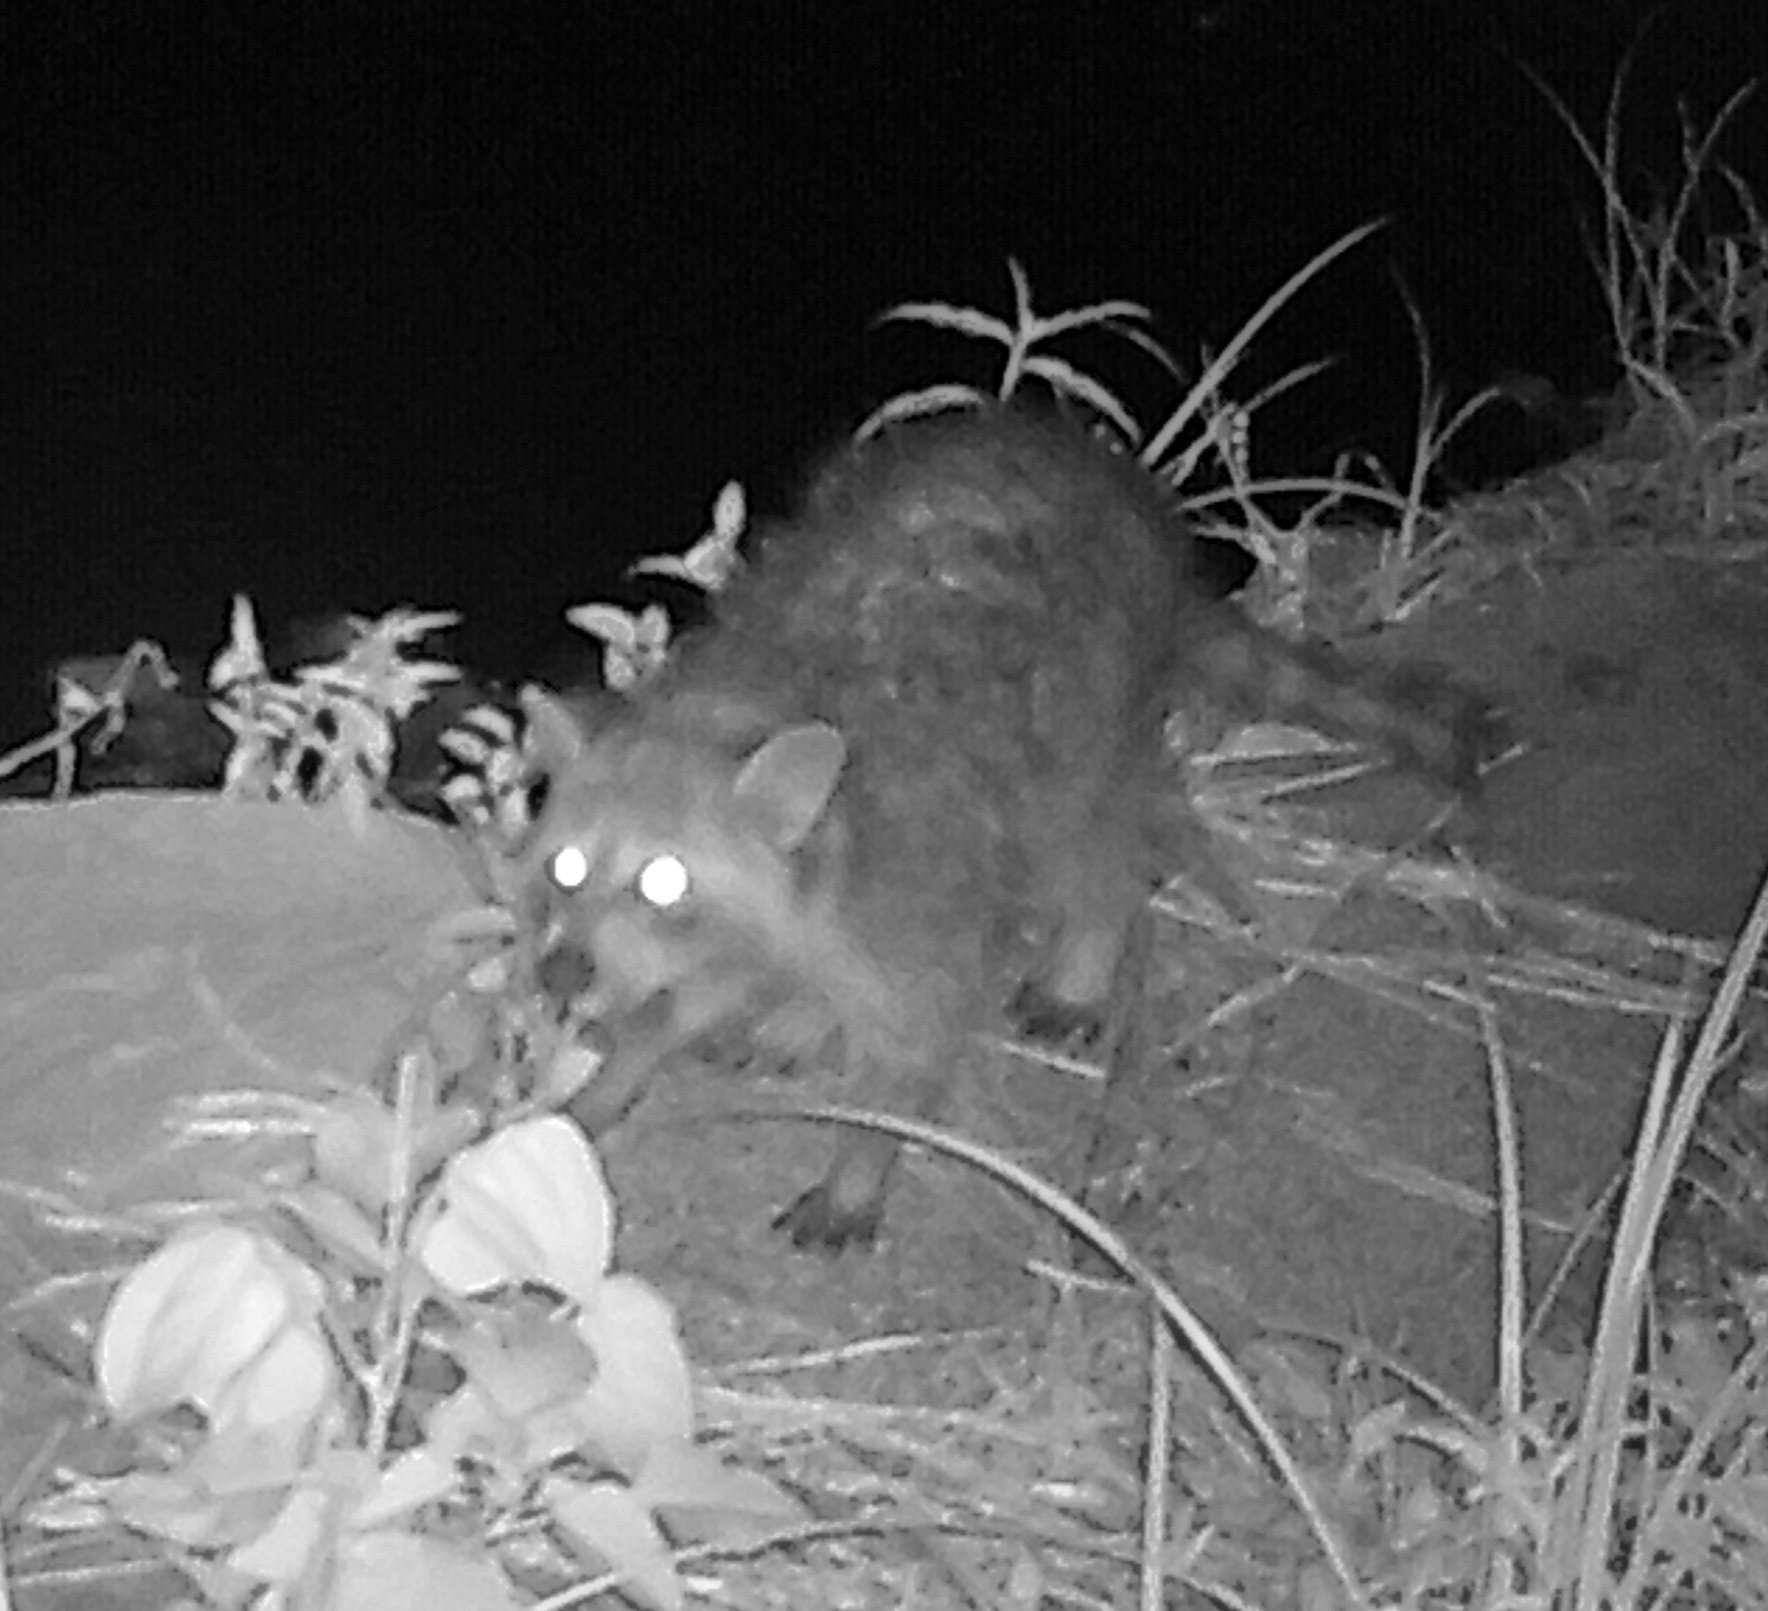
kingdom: Animalia
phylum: Chordata
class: Mammalia
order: Carnivora
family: Procyonidae
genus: Procyon
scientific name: Procyon lotor
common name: Raccoon
